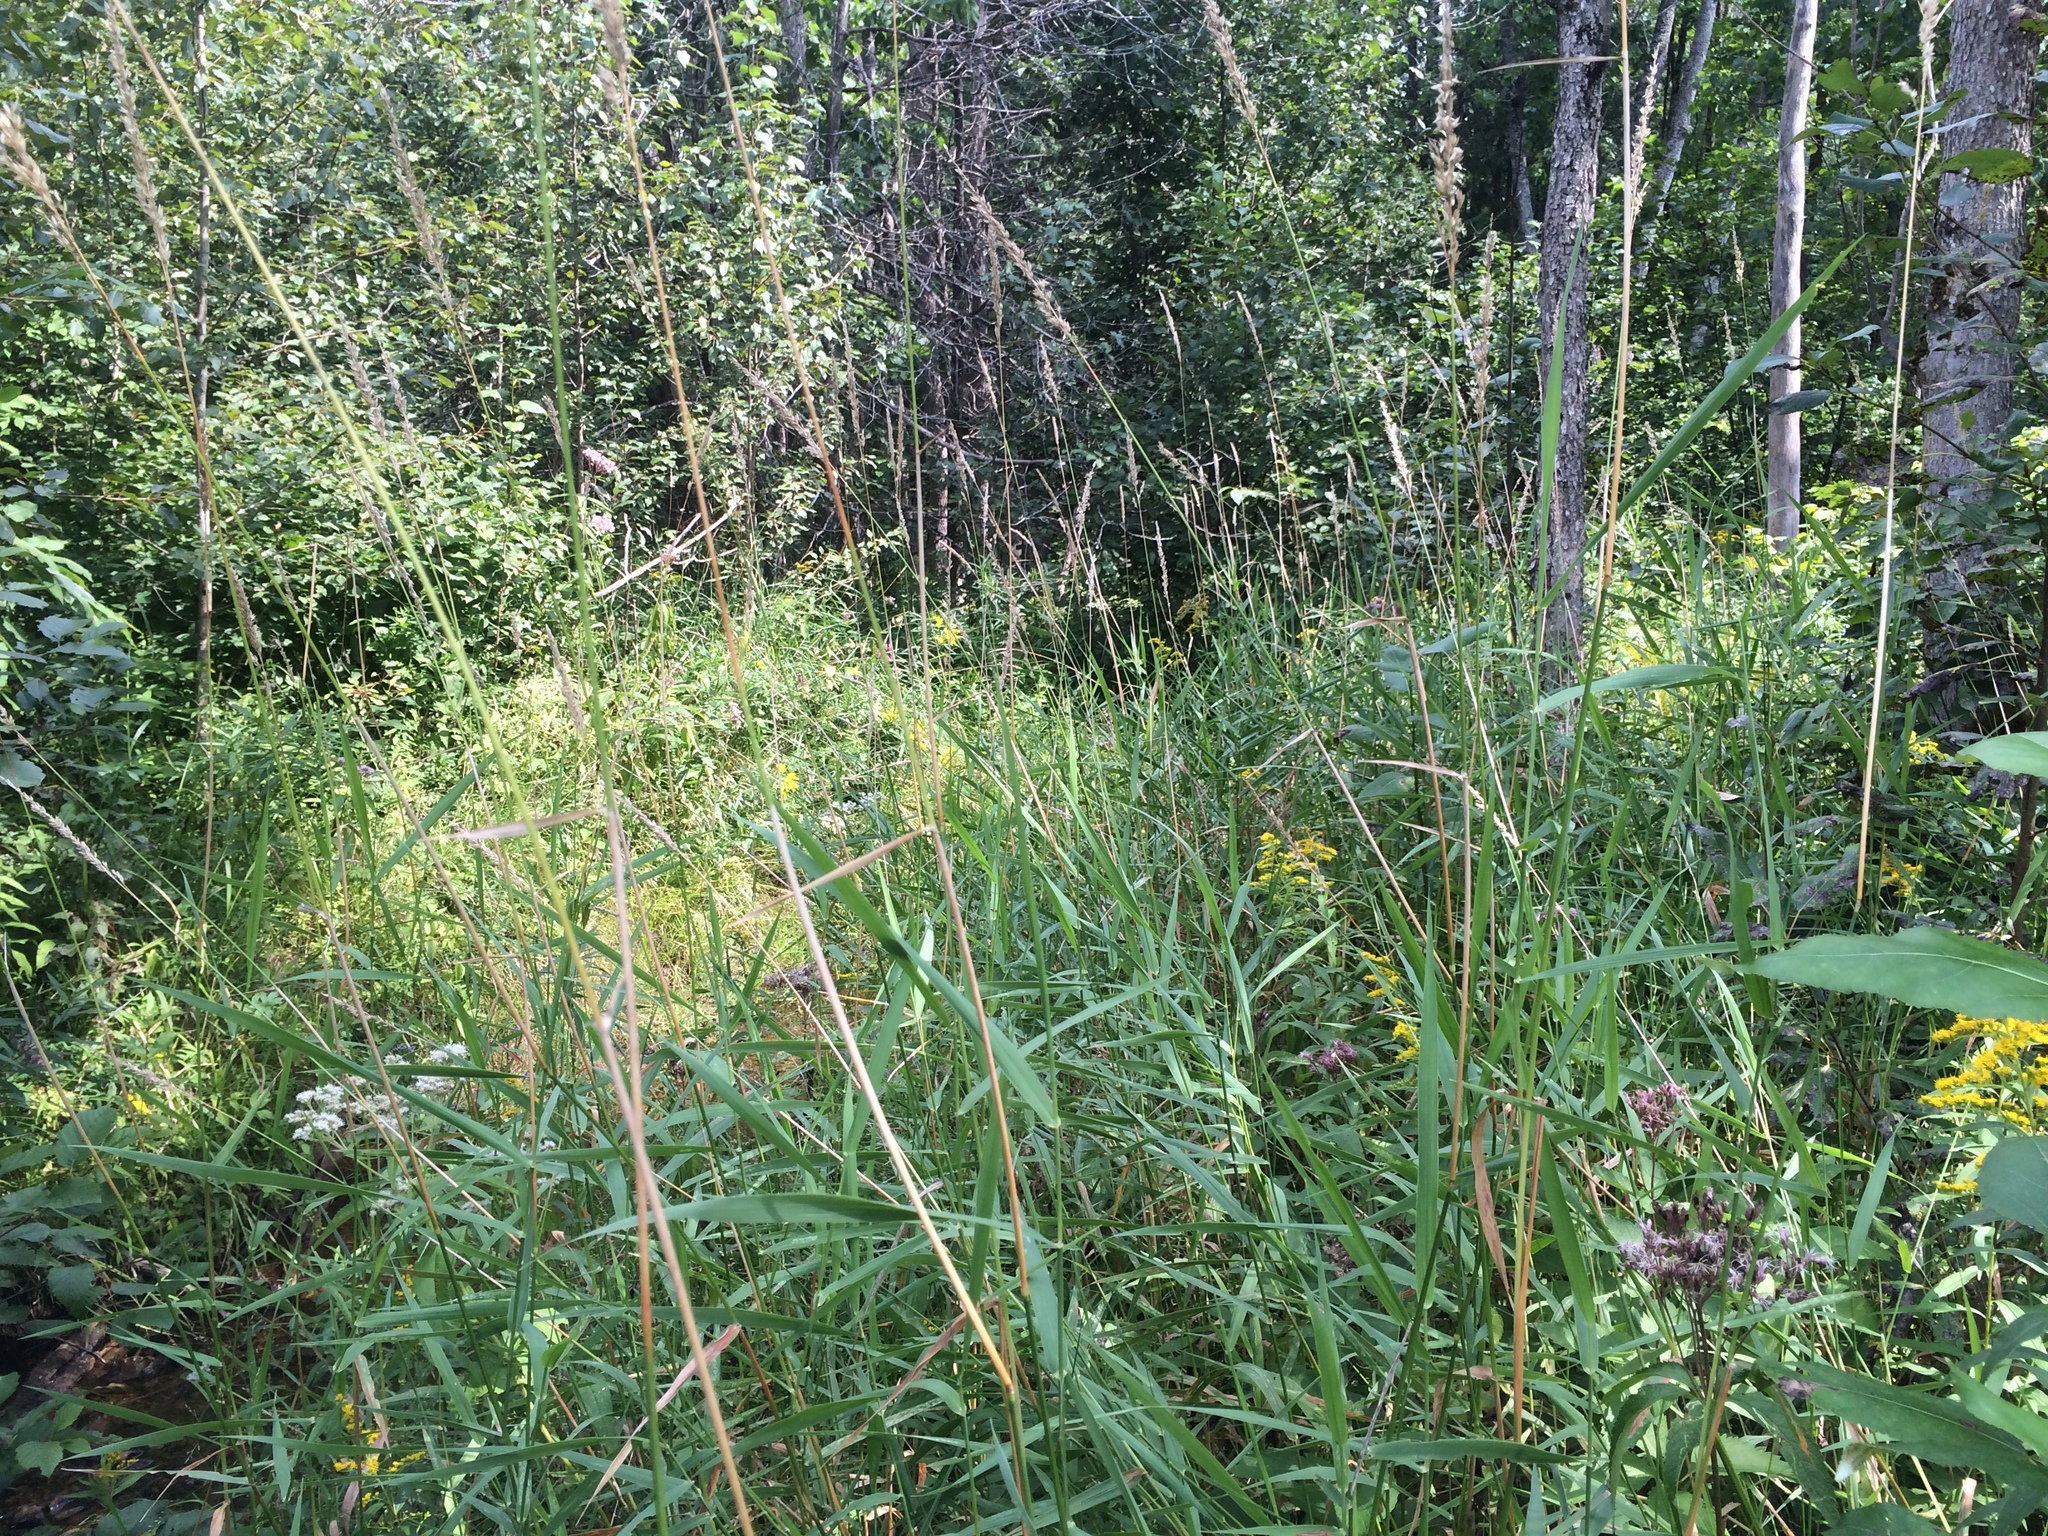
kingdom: Plantae
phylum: Tracheophyta
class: Liliopsida
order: Poales
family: Poaceae
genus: Phalaris
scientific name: Phalaris arundinacea
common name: Reed canary-grass
